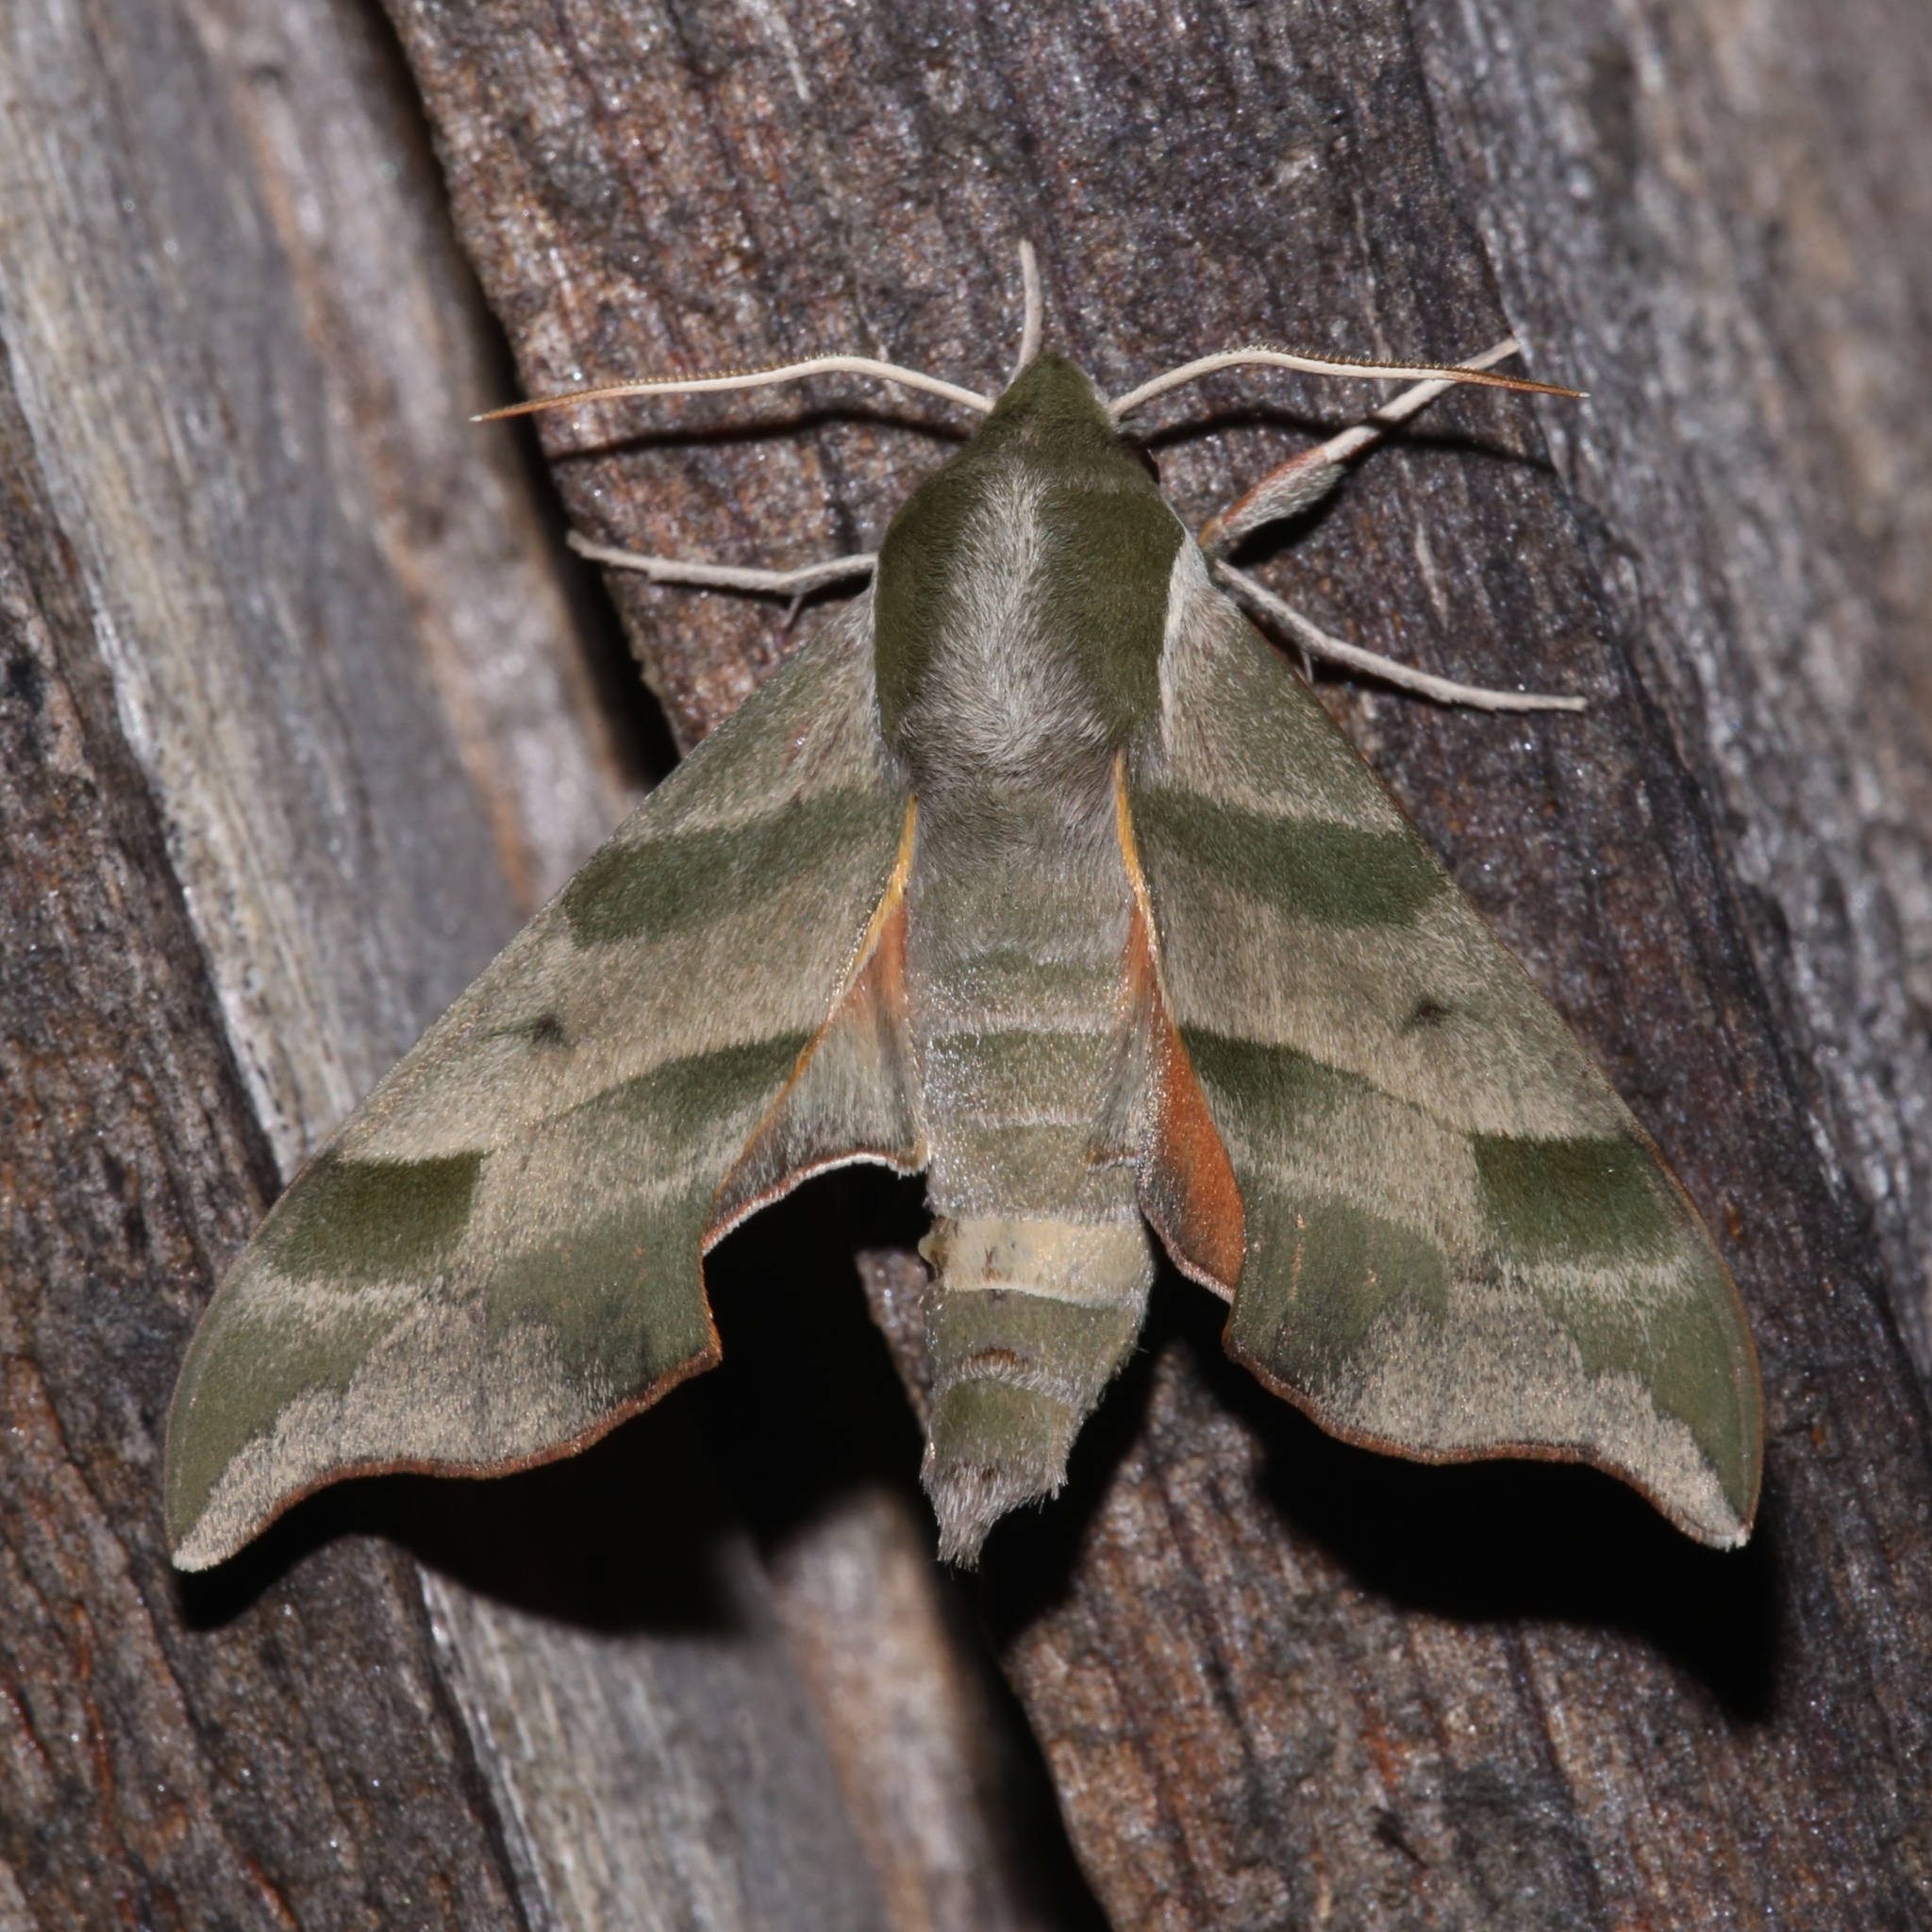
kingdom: Animalia
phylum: Arthropoda
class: Insecta
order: Lepidoptera
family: Sphingidae
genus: Darapsa
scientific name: Darapsa myron
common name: Hog sphinx
